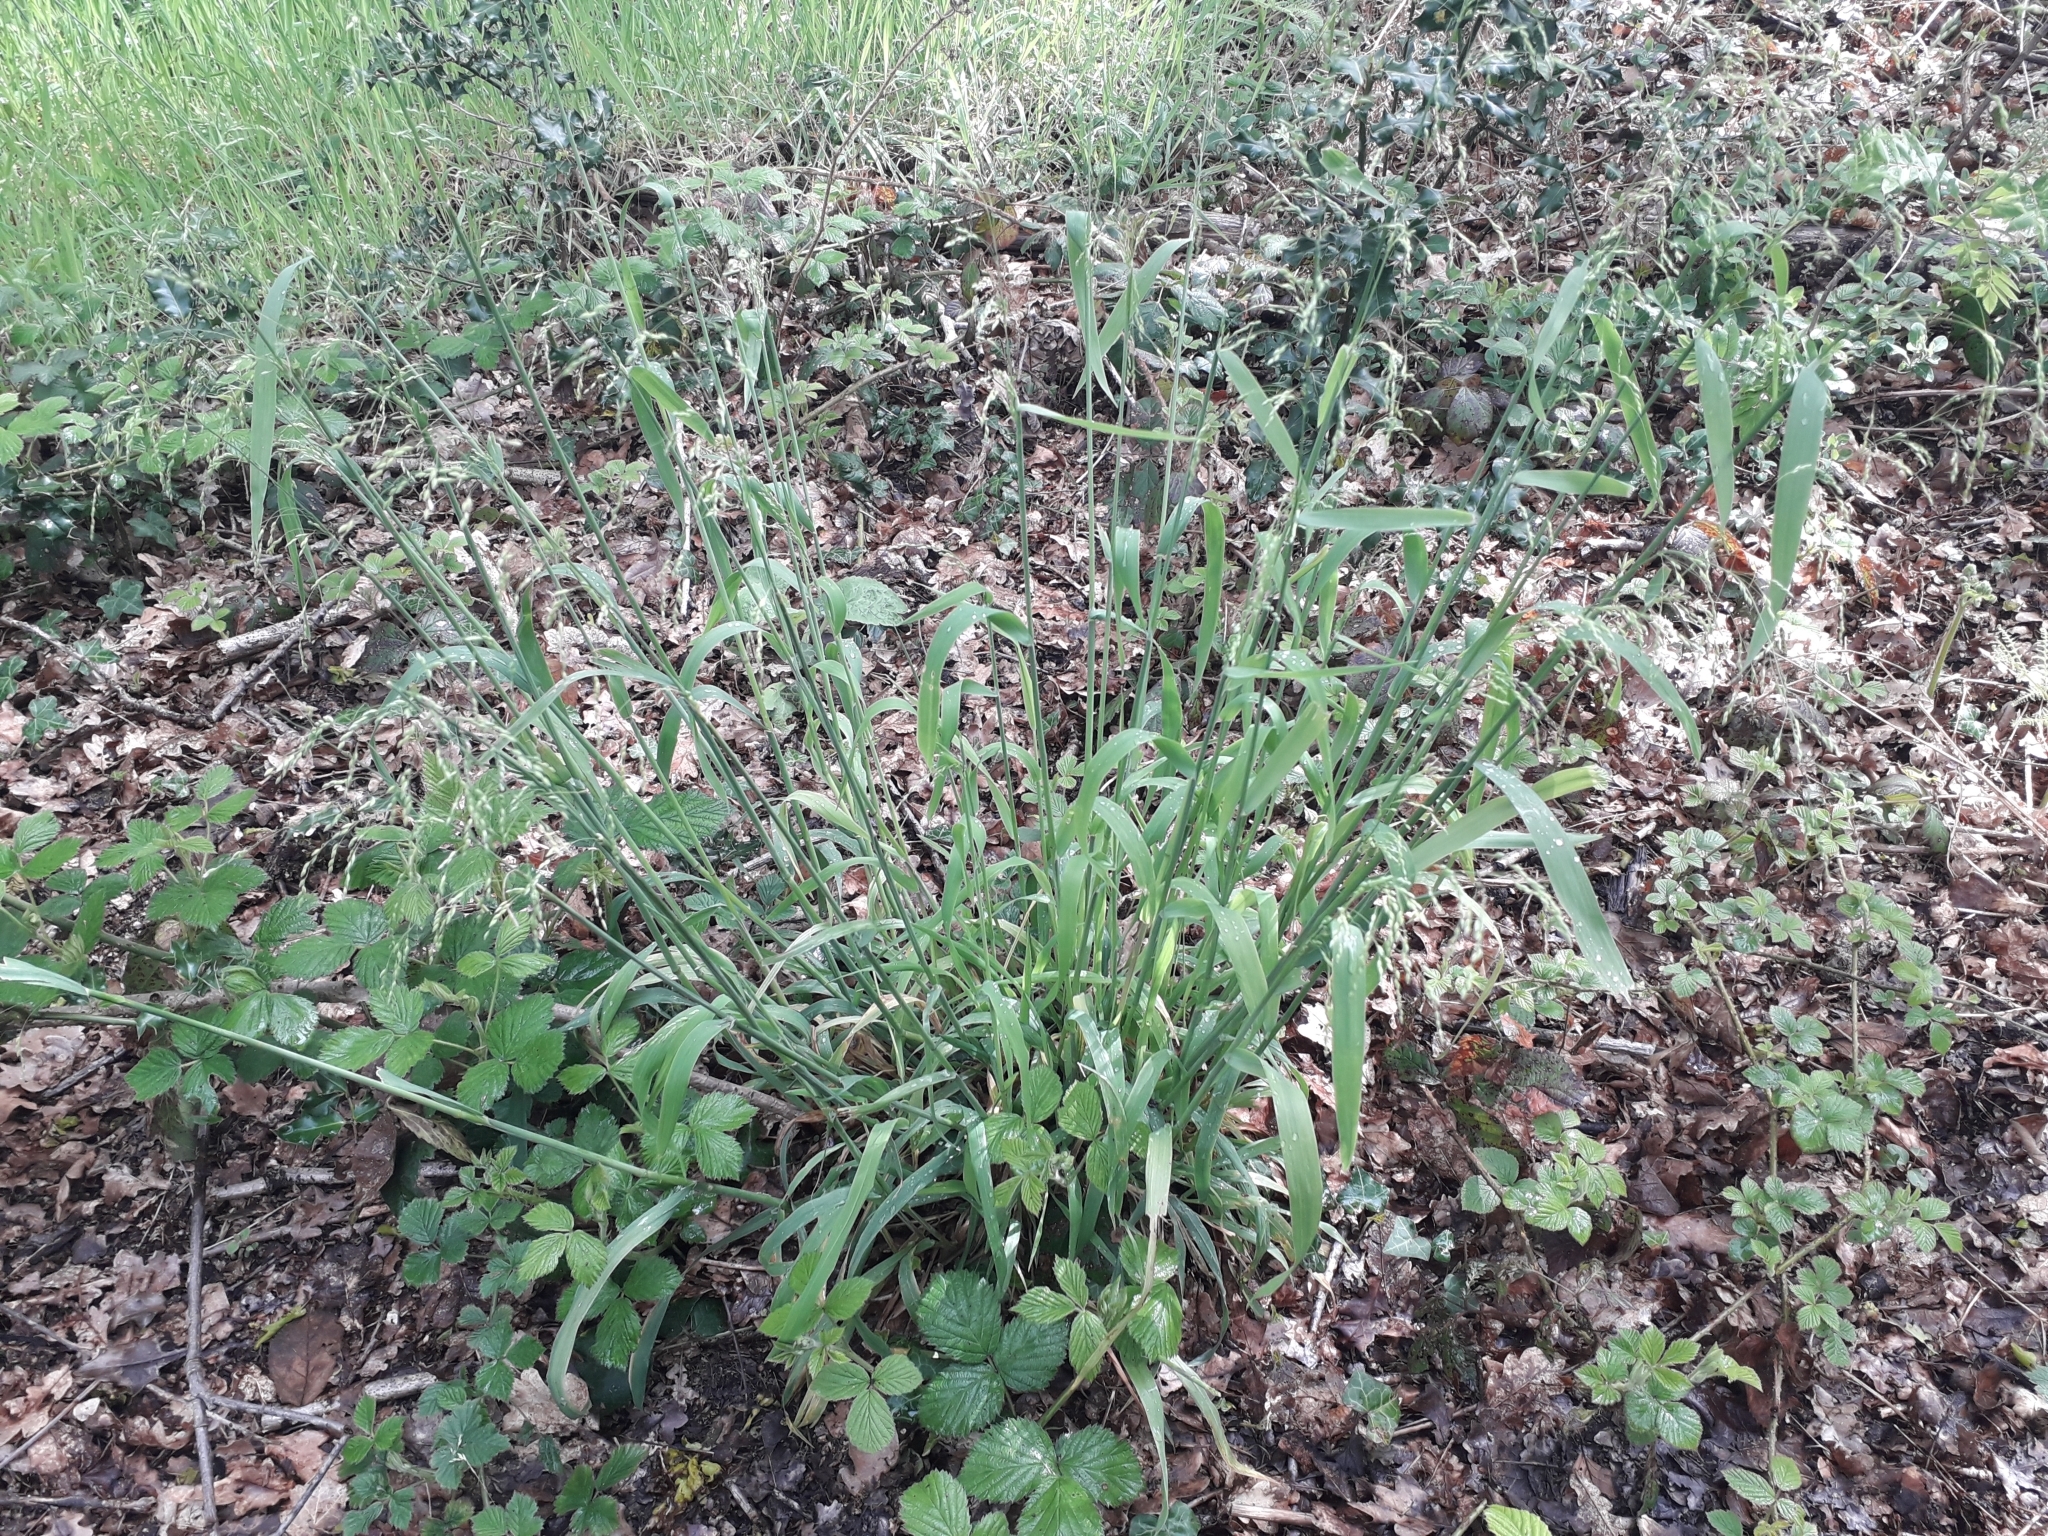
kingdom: Plantae
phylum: Tracheophyta
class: Liliopsida
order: Poales
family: Poaceae
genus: Milium
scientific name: Milium effusum
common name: Wood millet
